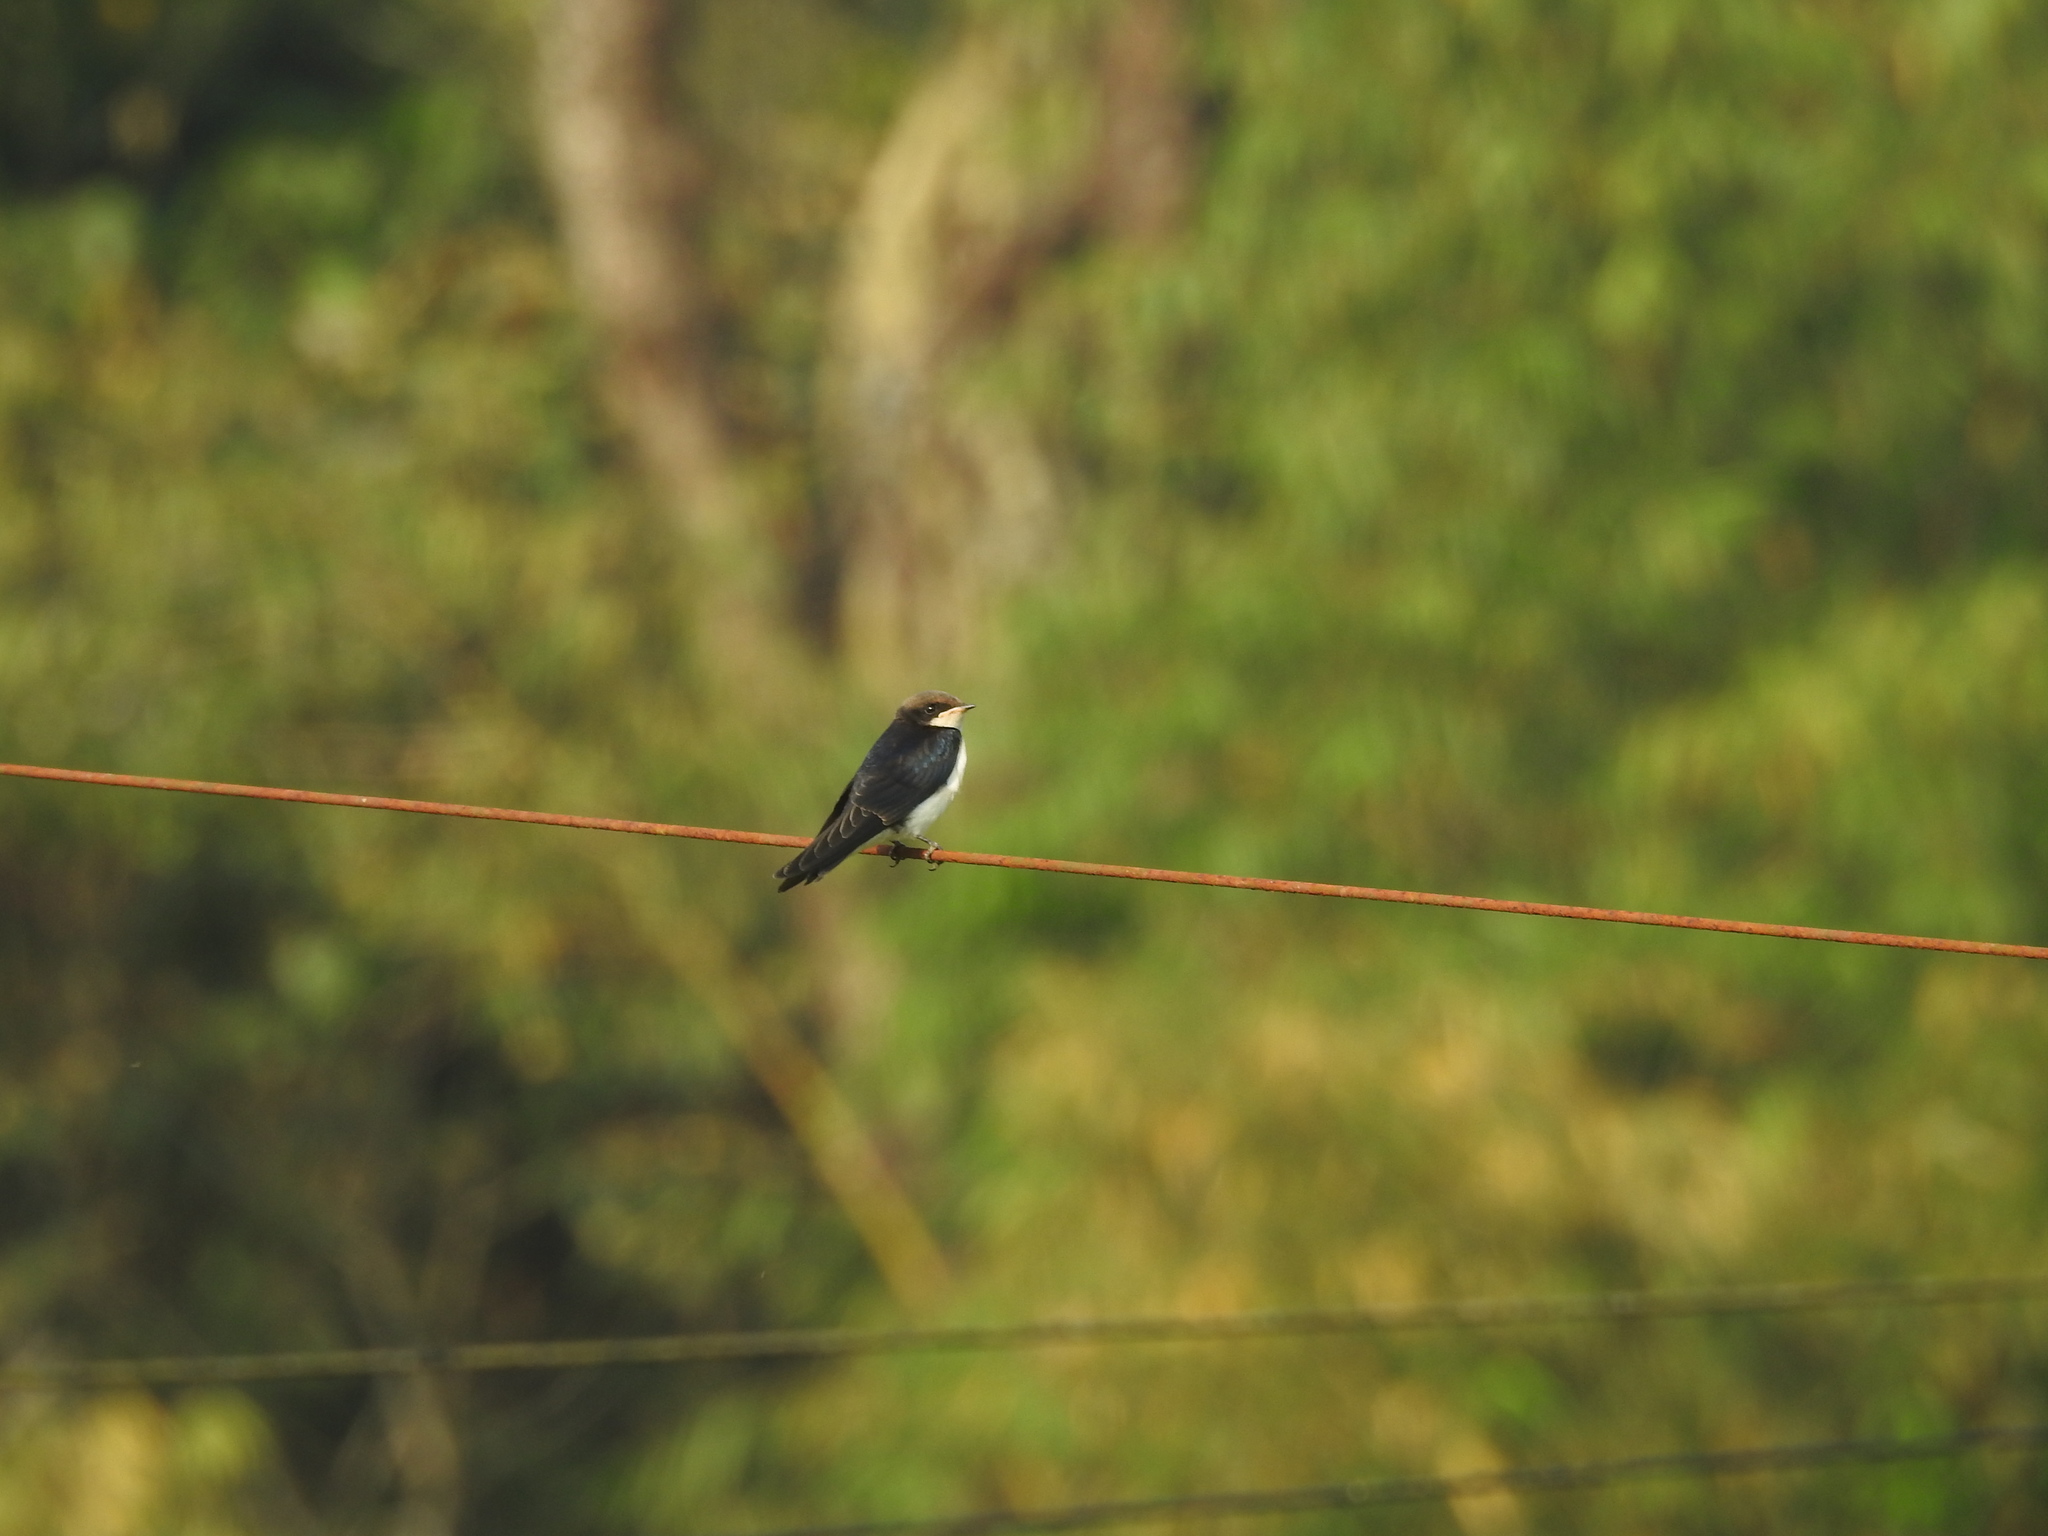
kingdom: Animalia
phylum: Chordata
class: Aves
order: Passeriformes
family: Hirundinidae
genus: Hirundo
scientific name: Hirundo smithii
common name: Wire-tailed swallow
